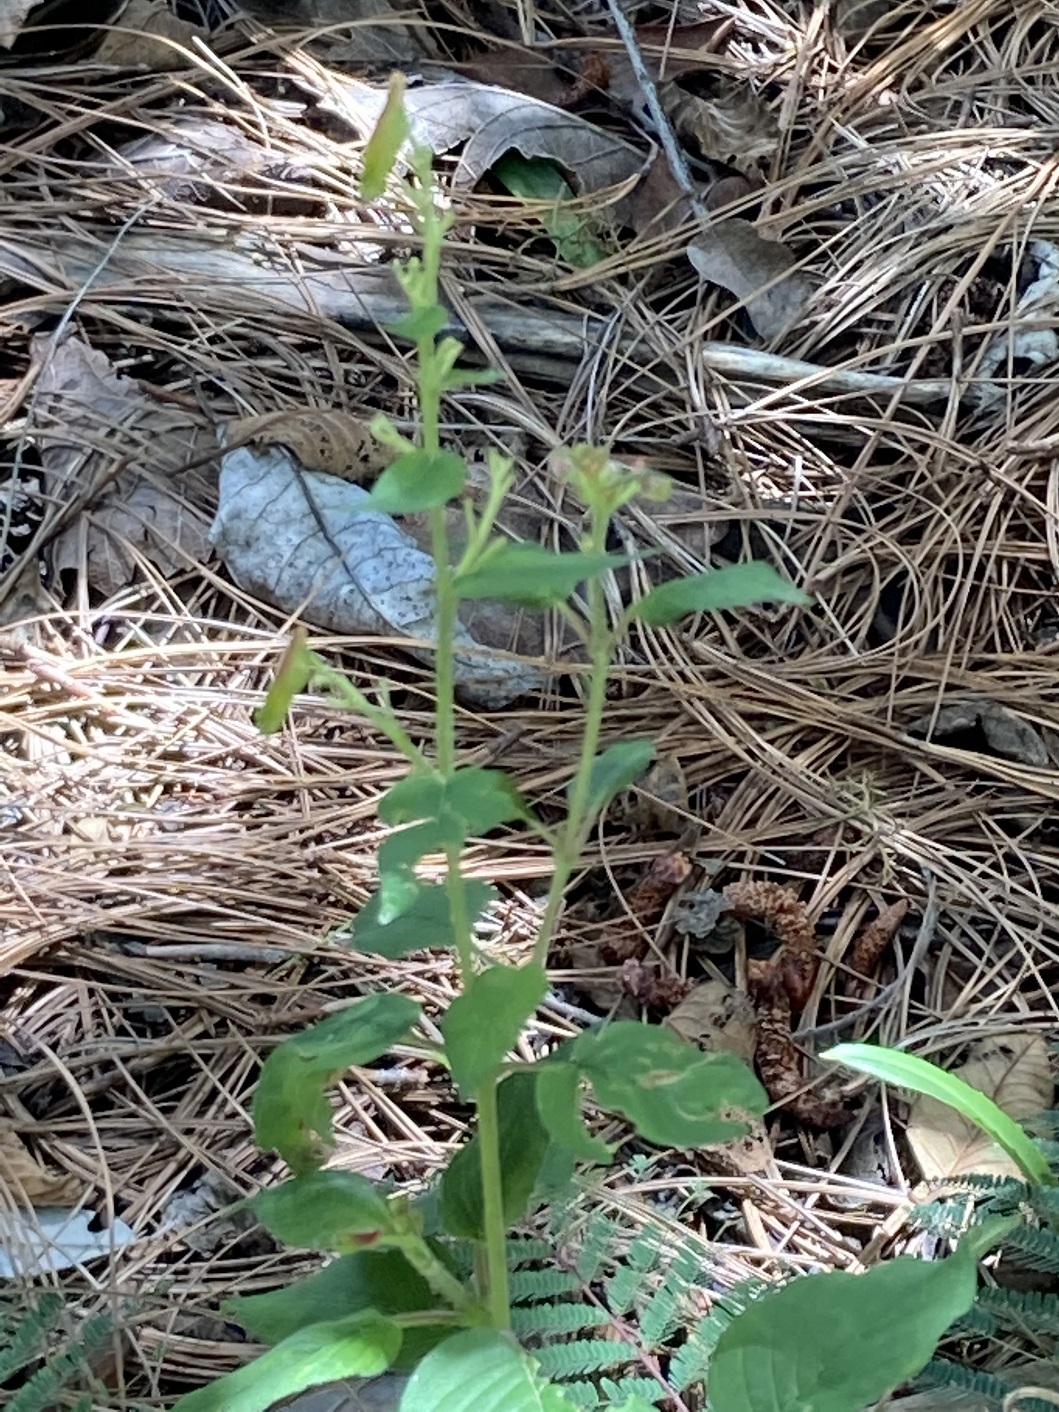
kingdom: Plantae
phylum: Tracheophyta
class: Magnoliopsida
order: Myrtales
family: Lythraceae
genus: Cuphea
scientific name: Cuphea cyanea
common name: Black-eyed cuphea
